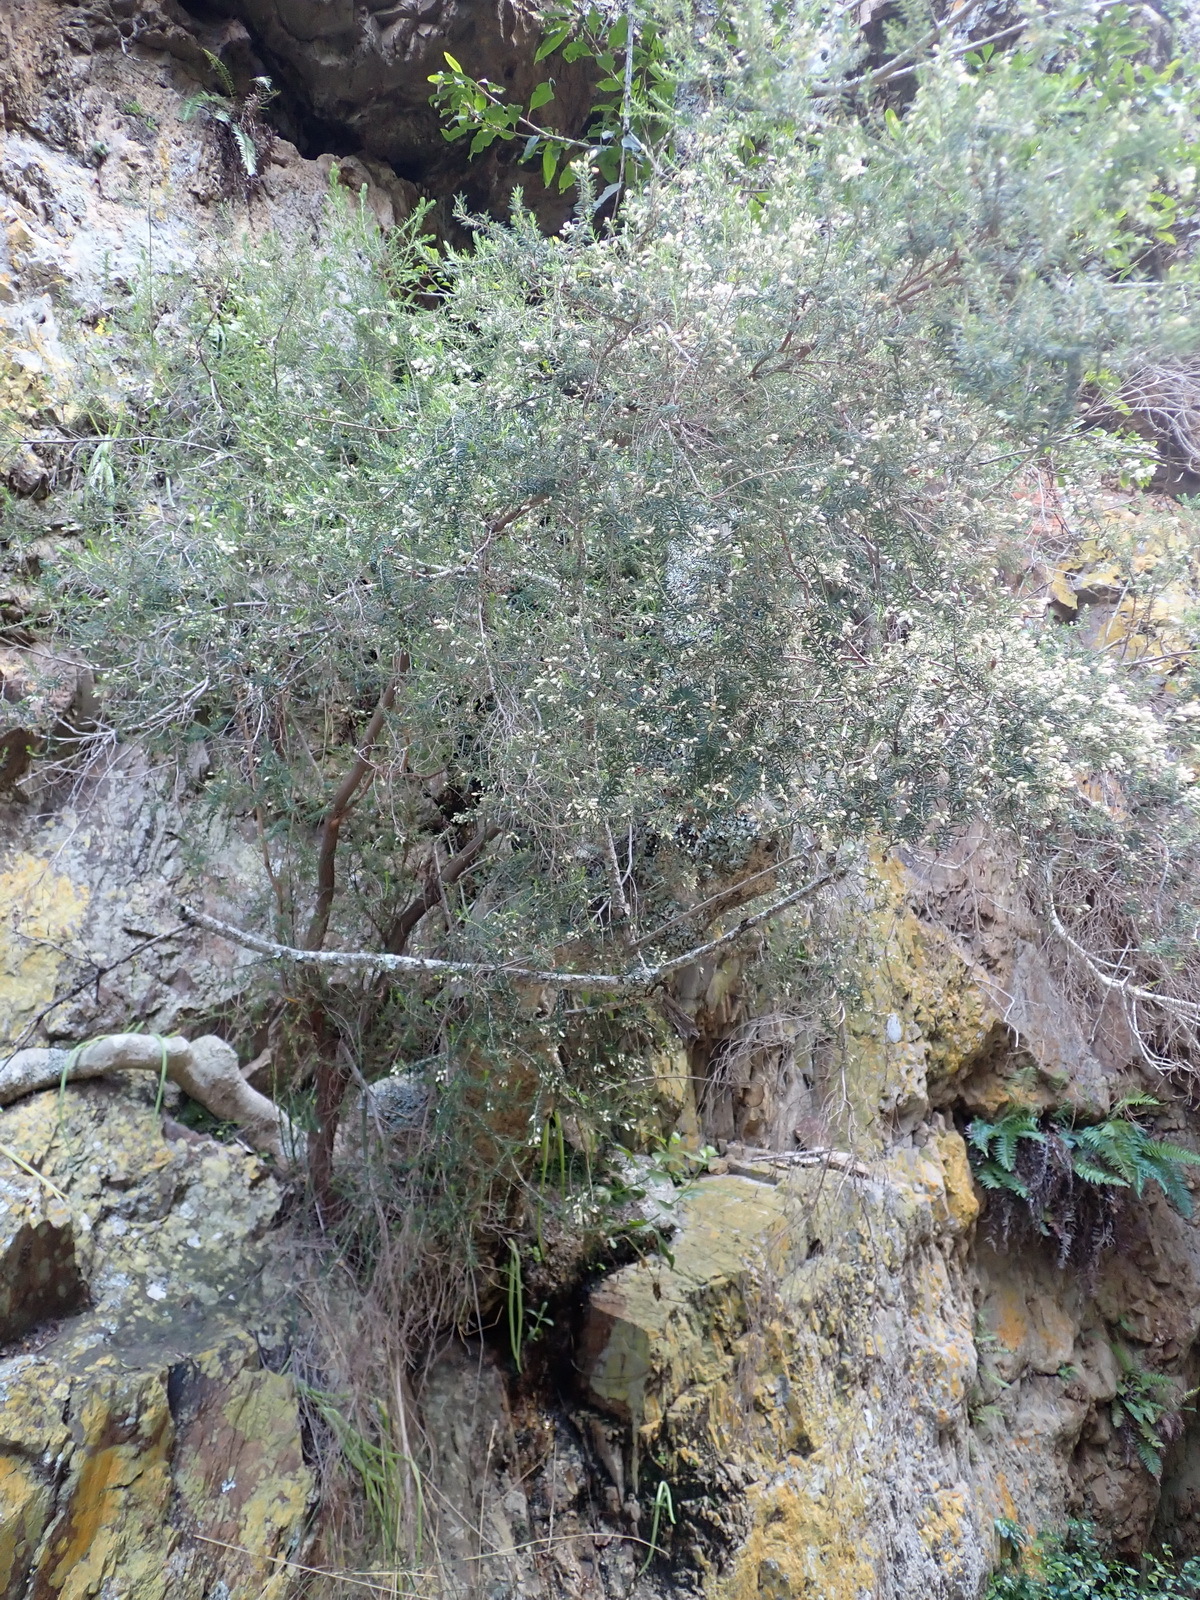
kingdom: Plantae
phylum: Tracheophyta
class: Magnoliopsida
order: Ericales
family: Ericaceae
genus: Erica
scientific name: Erica caffra
